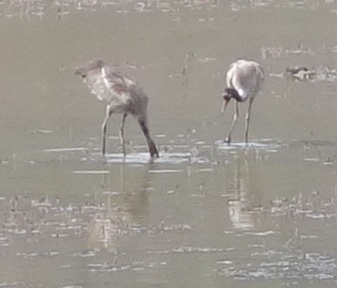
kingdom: Animalia
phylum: Chordata
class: Aves
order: Gruiformes
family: Gruidae
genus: Grus
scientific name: Grus nigricollis
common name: Black-necked crane
